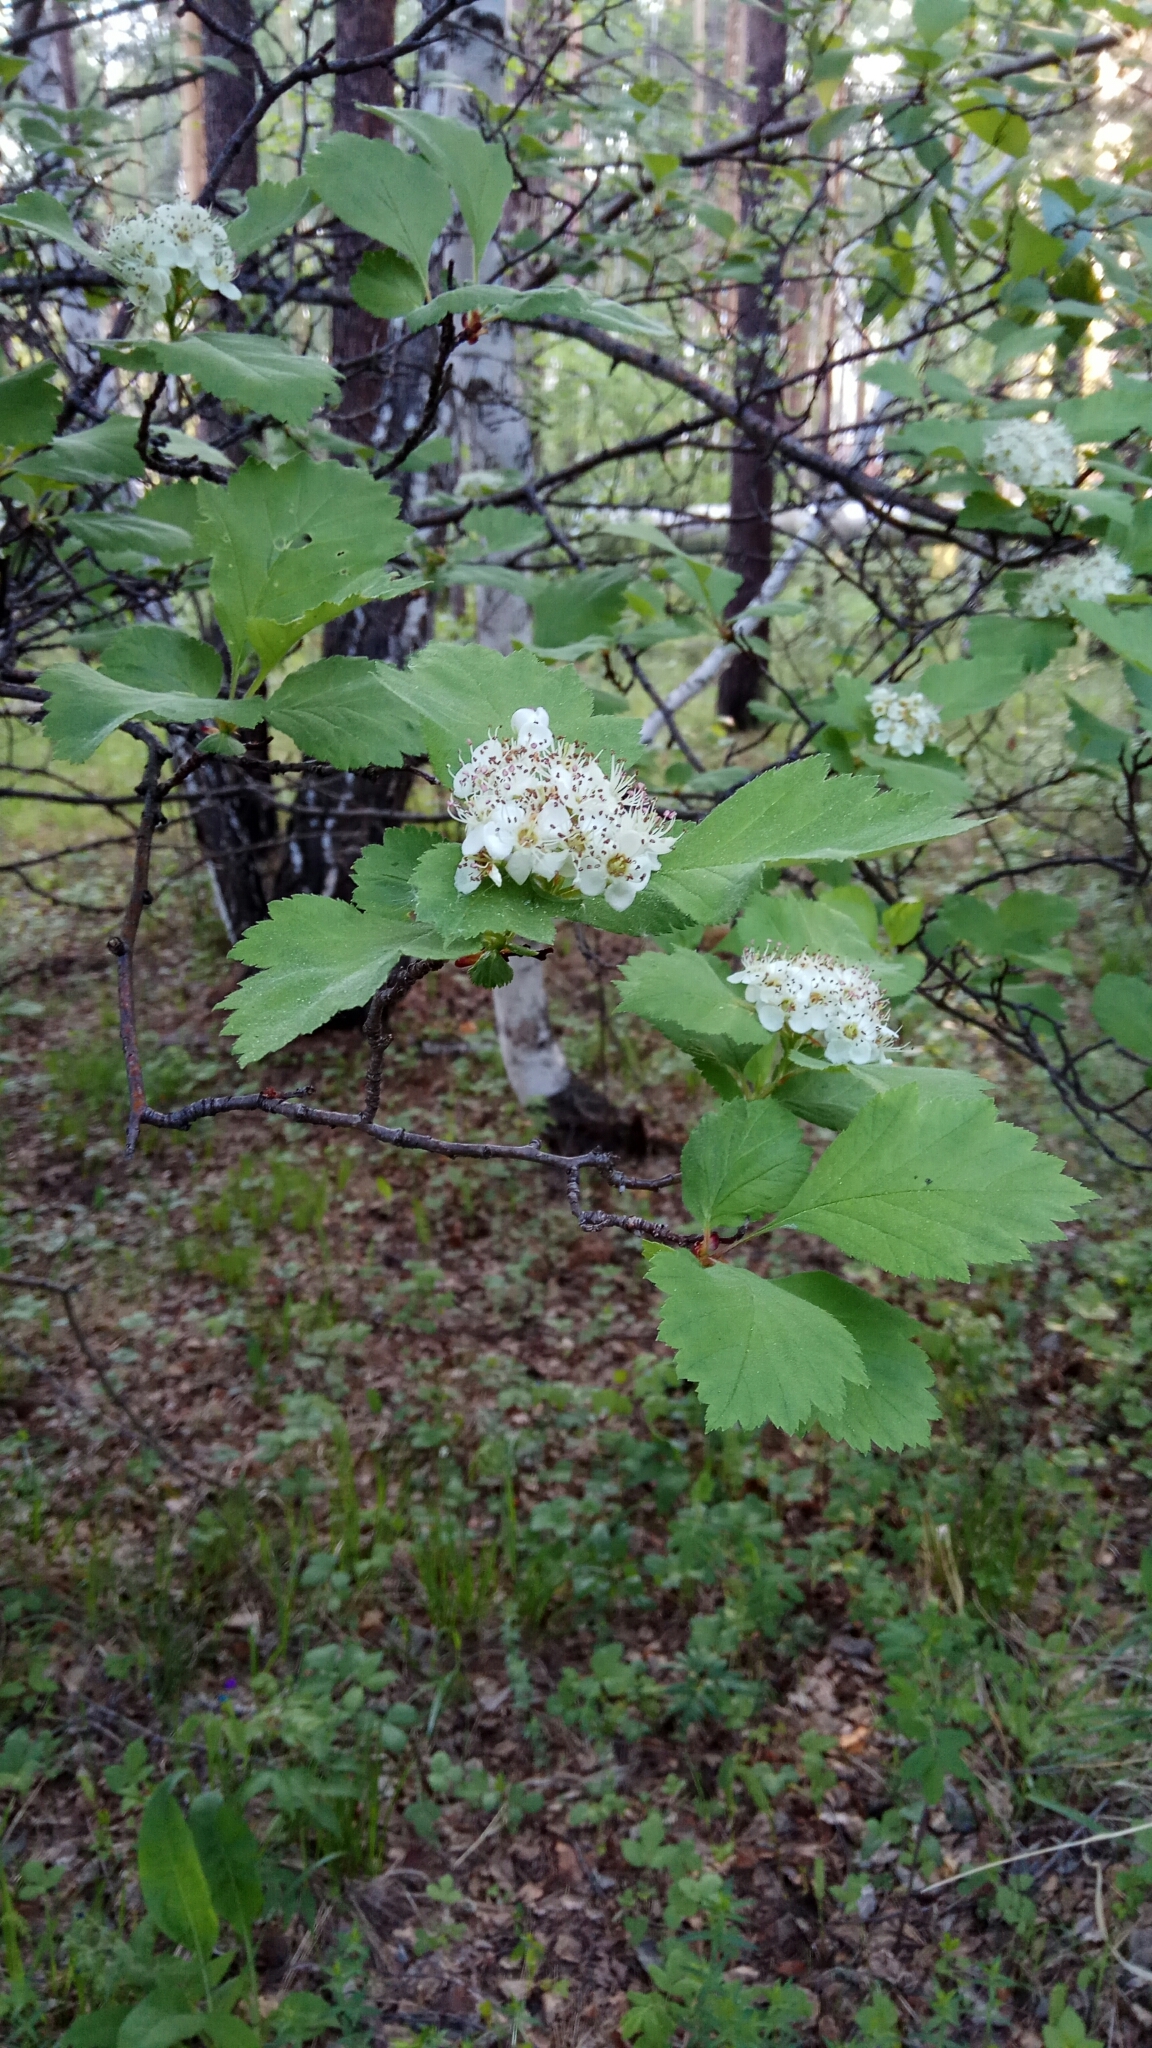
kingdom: Plantae
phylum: Tracheophyta
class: Magnoliopsida
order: Rosales
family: Rosaceae
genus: Crataegus
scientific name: Crataegus sanguinea
